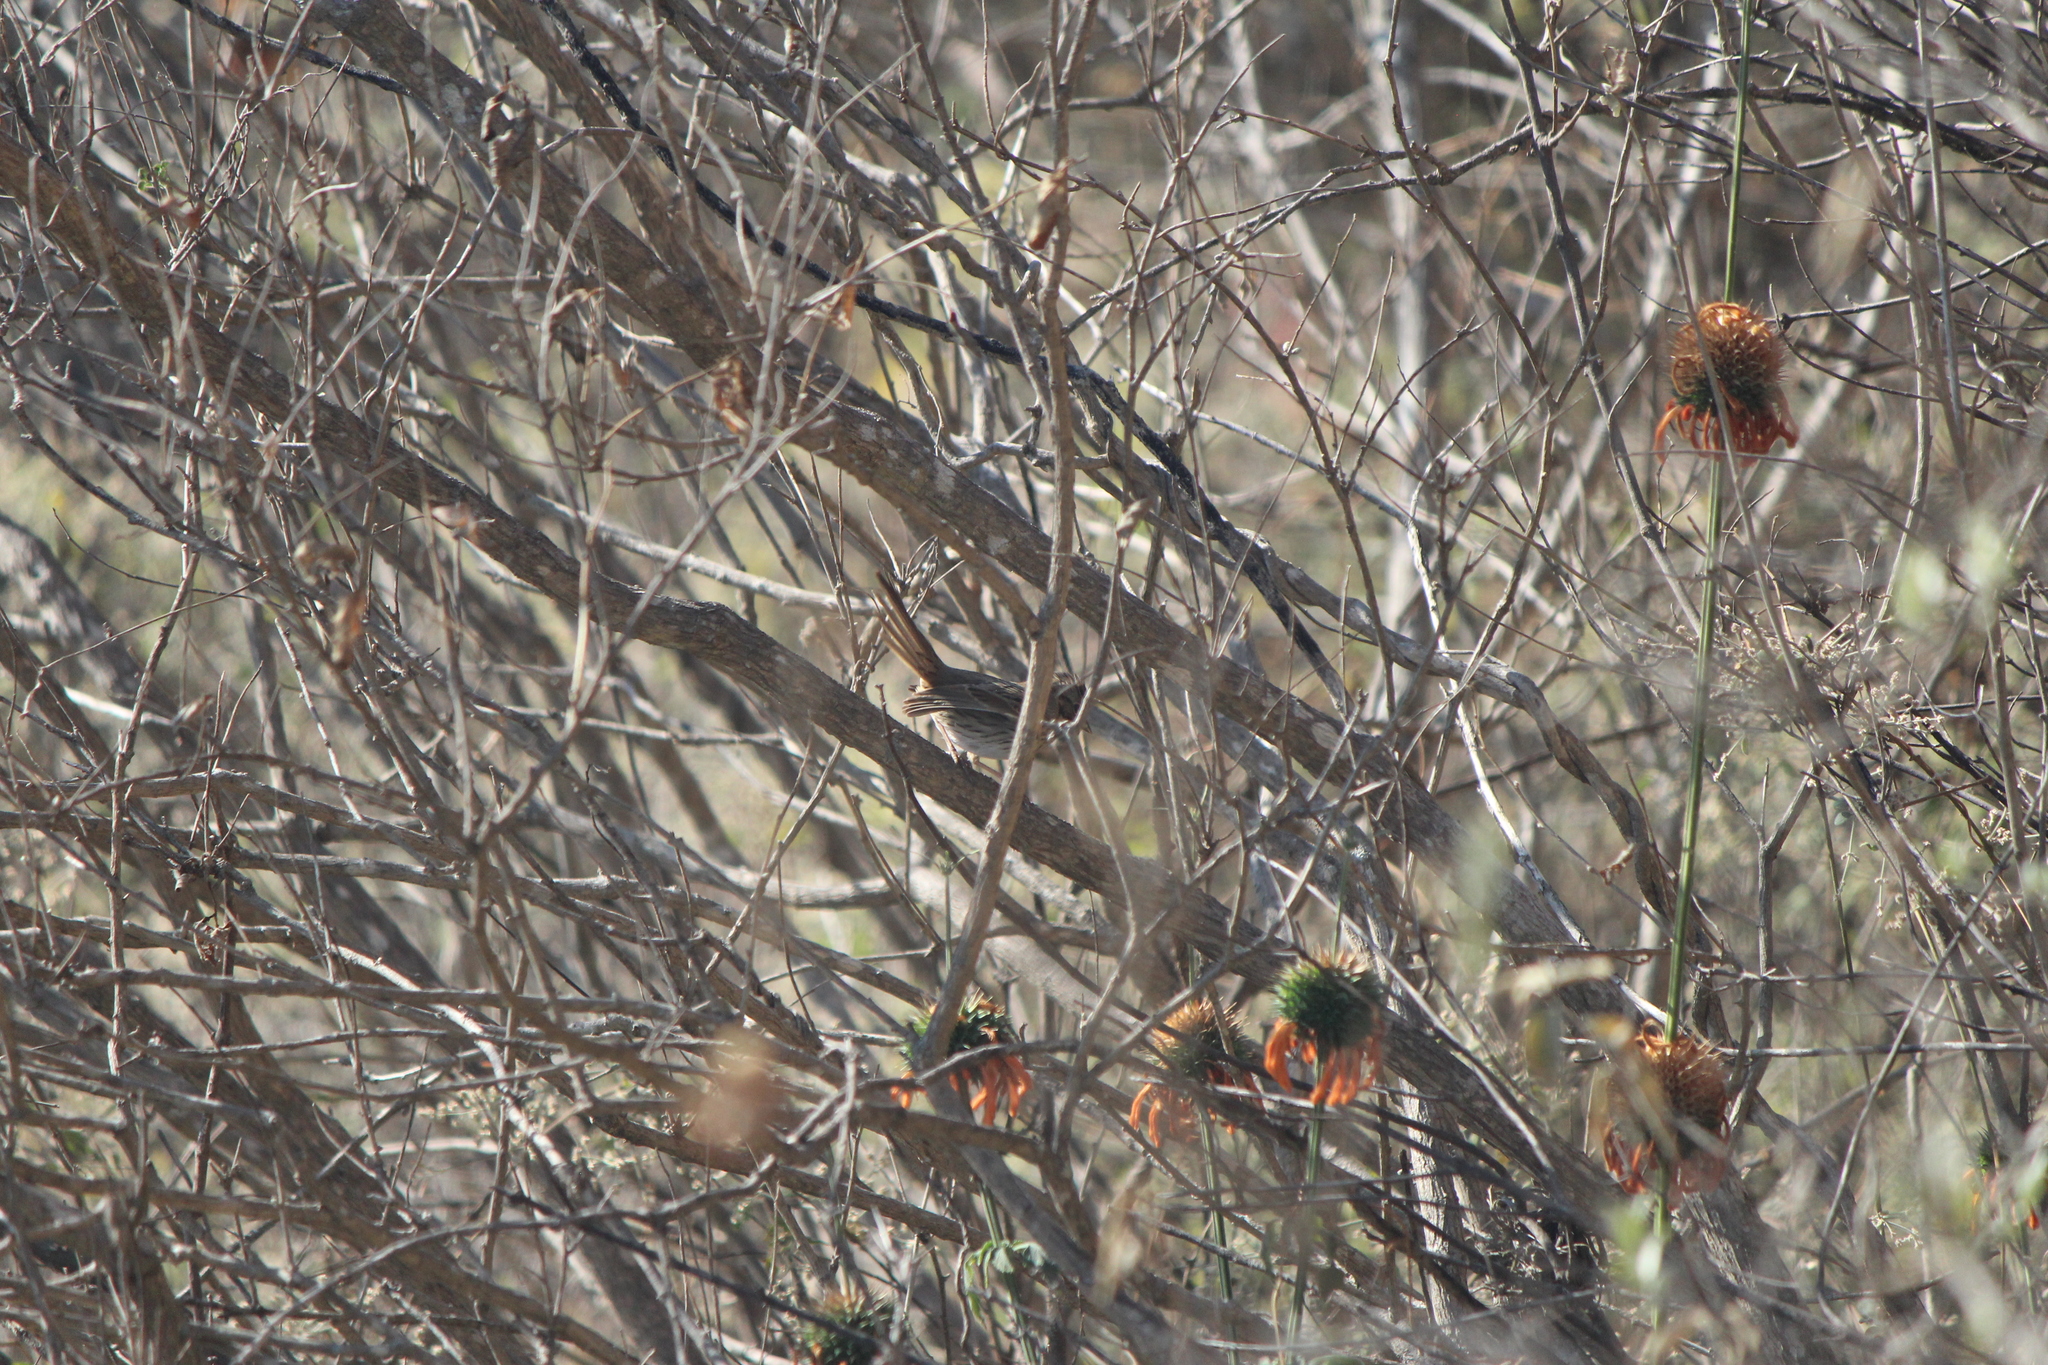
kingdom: Animalia
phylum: Chordata
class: Aves
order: Passeriformes
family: Passerellidae
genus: Melospiza
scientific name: Melospiza lincolnii
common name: Lincoln's sparrow
